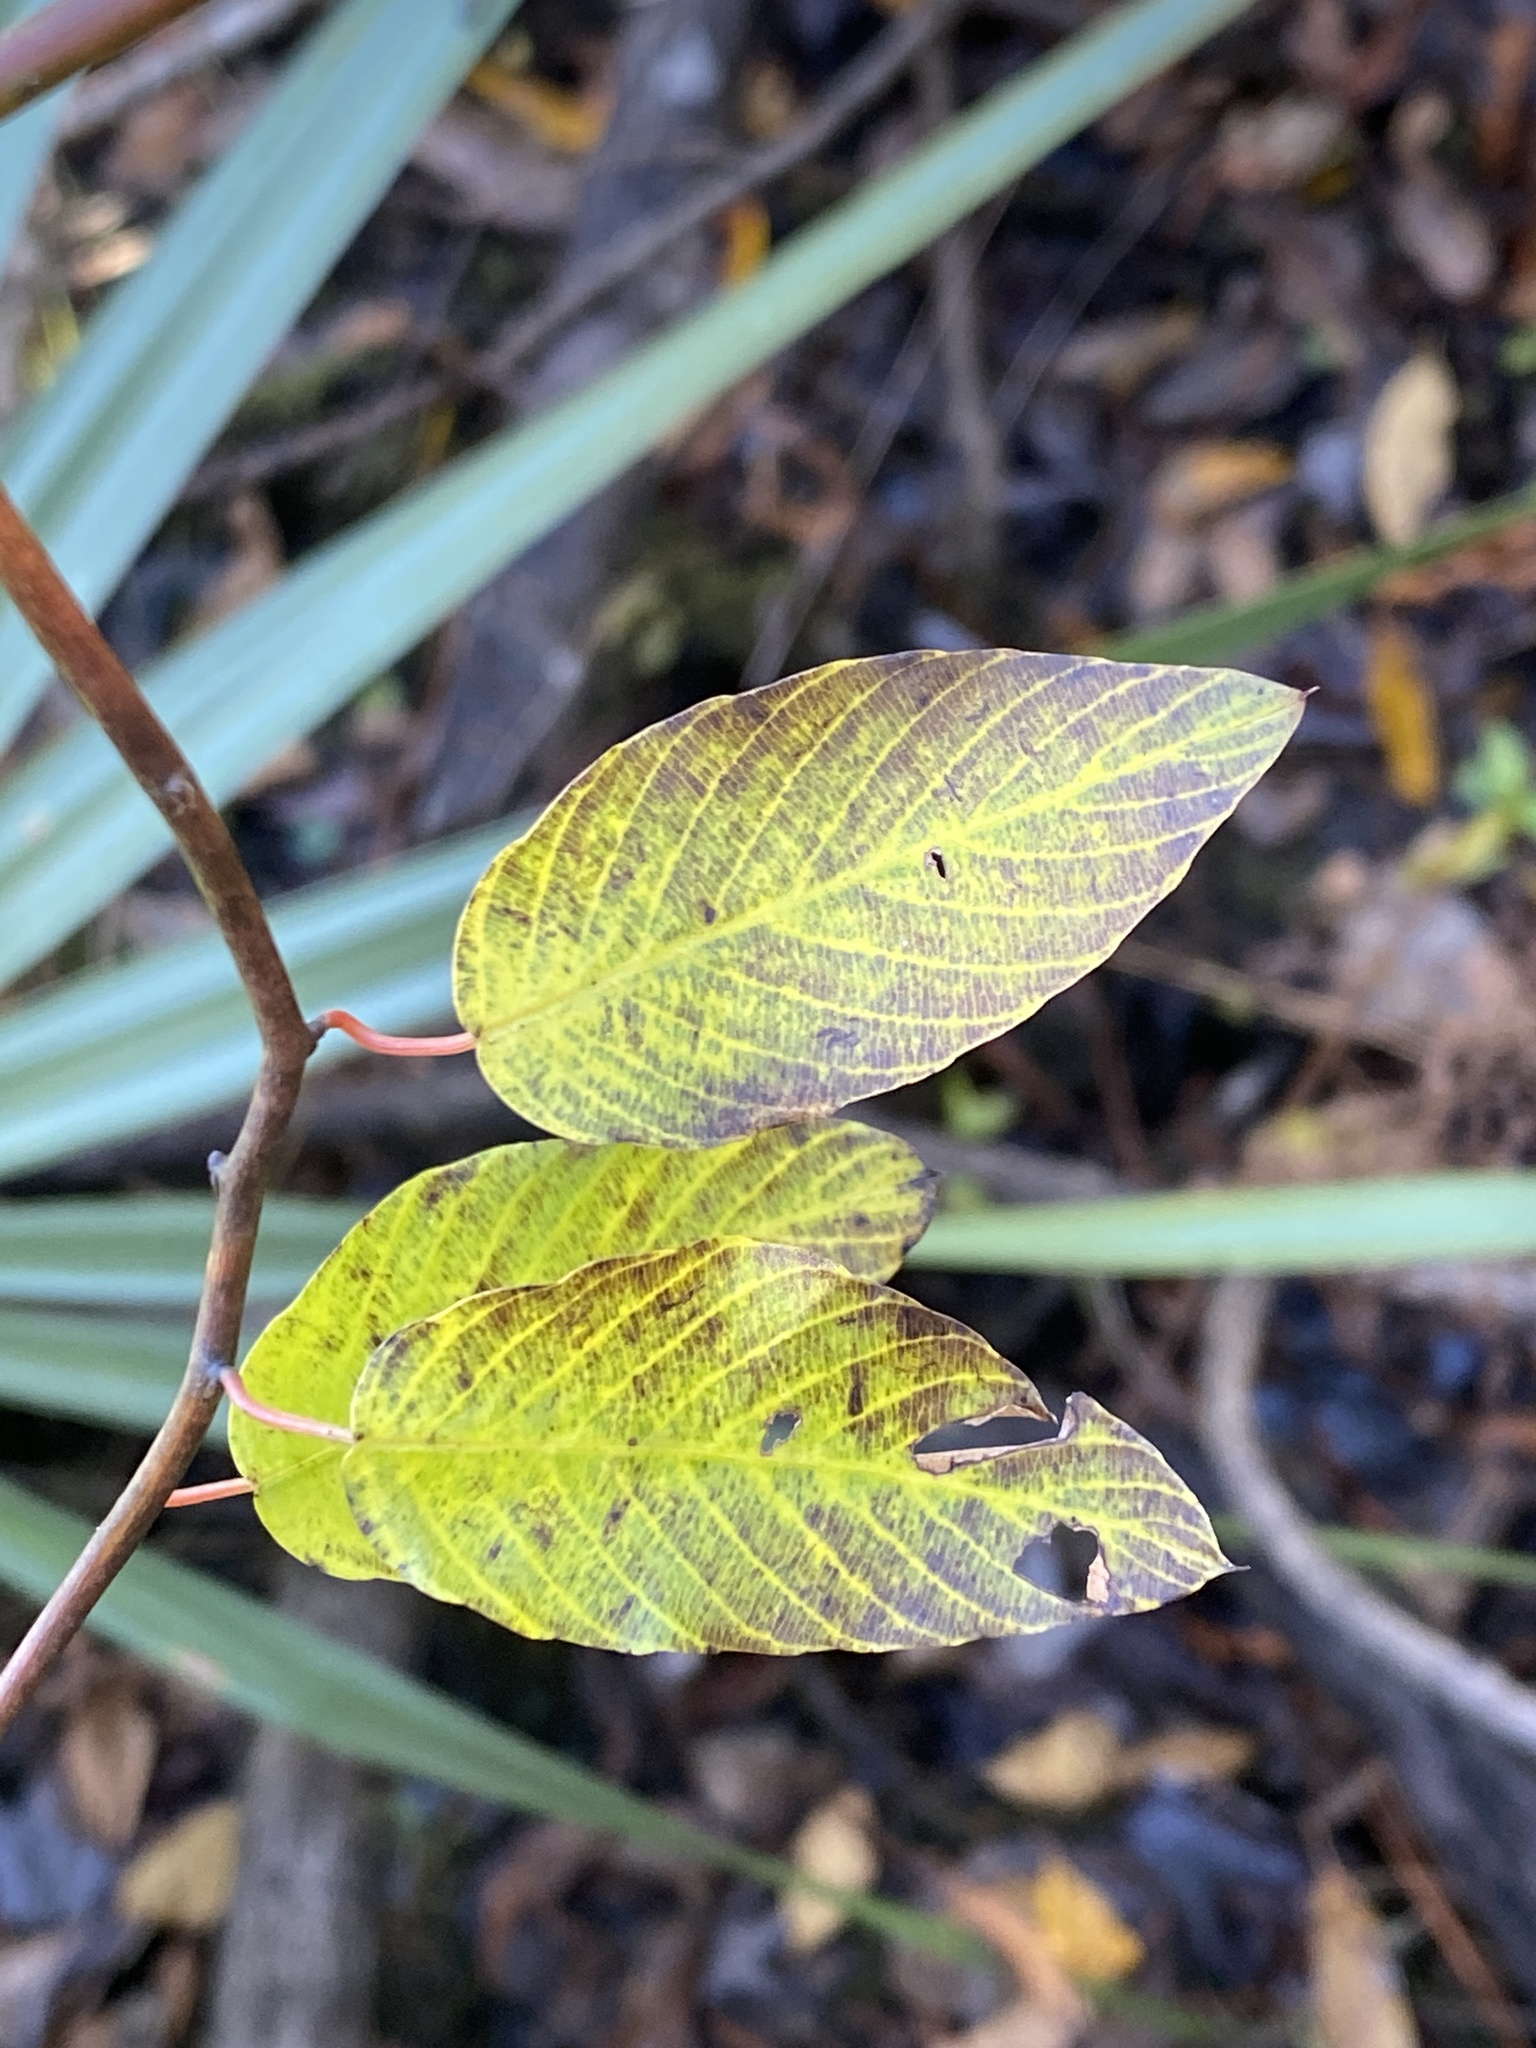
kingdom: Plantae
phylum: Tracheophyta
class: Magnoliopsida
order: Rosales
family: Rhamnaceae
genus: Berchemia
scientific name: Berchemia scandens
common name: Supplejack
